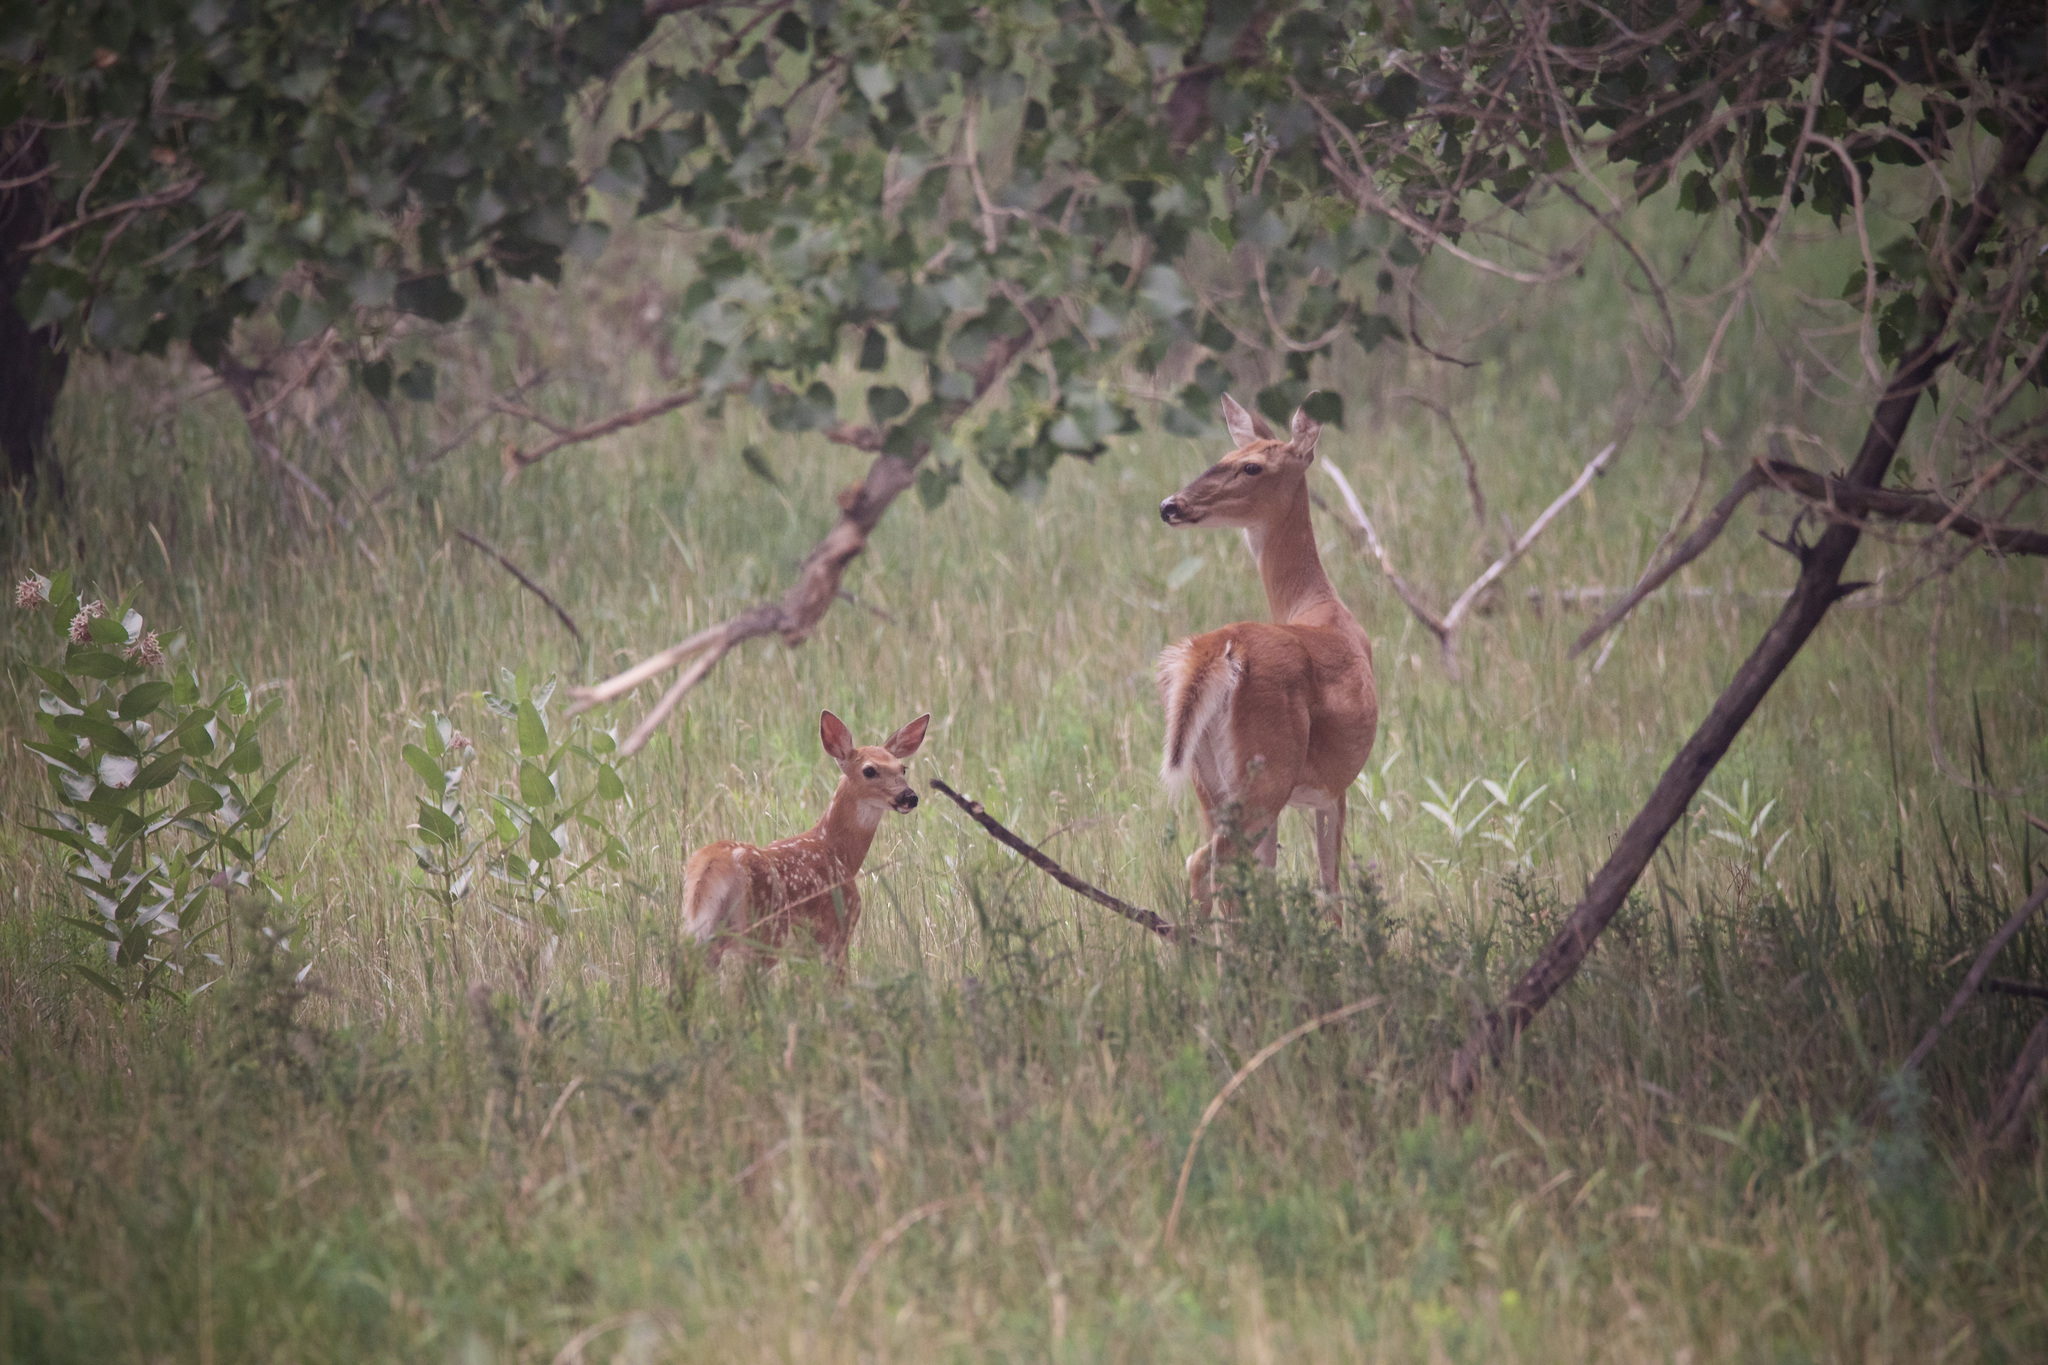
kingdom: Animalia
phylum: Chordata
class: Mammalia
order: Artiodactyla
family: Cervidae
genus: Odocoileus
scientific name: Odocoileus virginianus
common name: White-tailed deer
